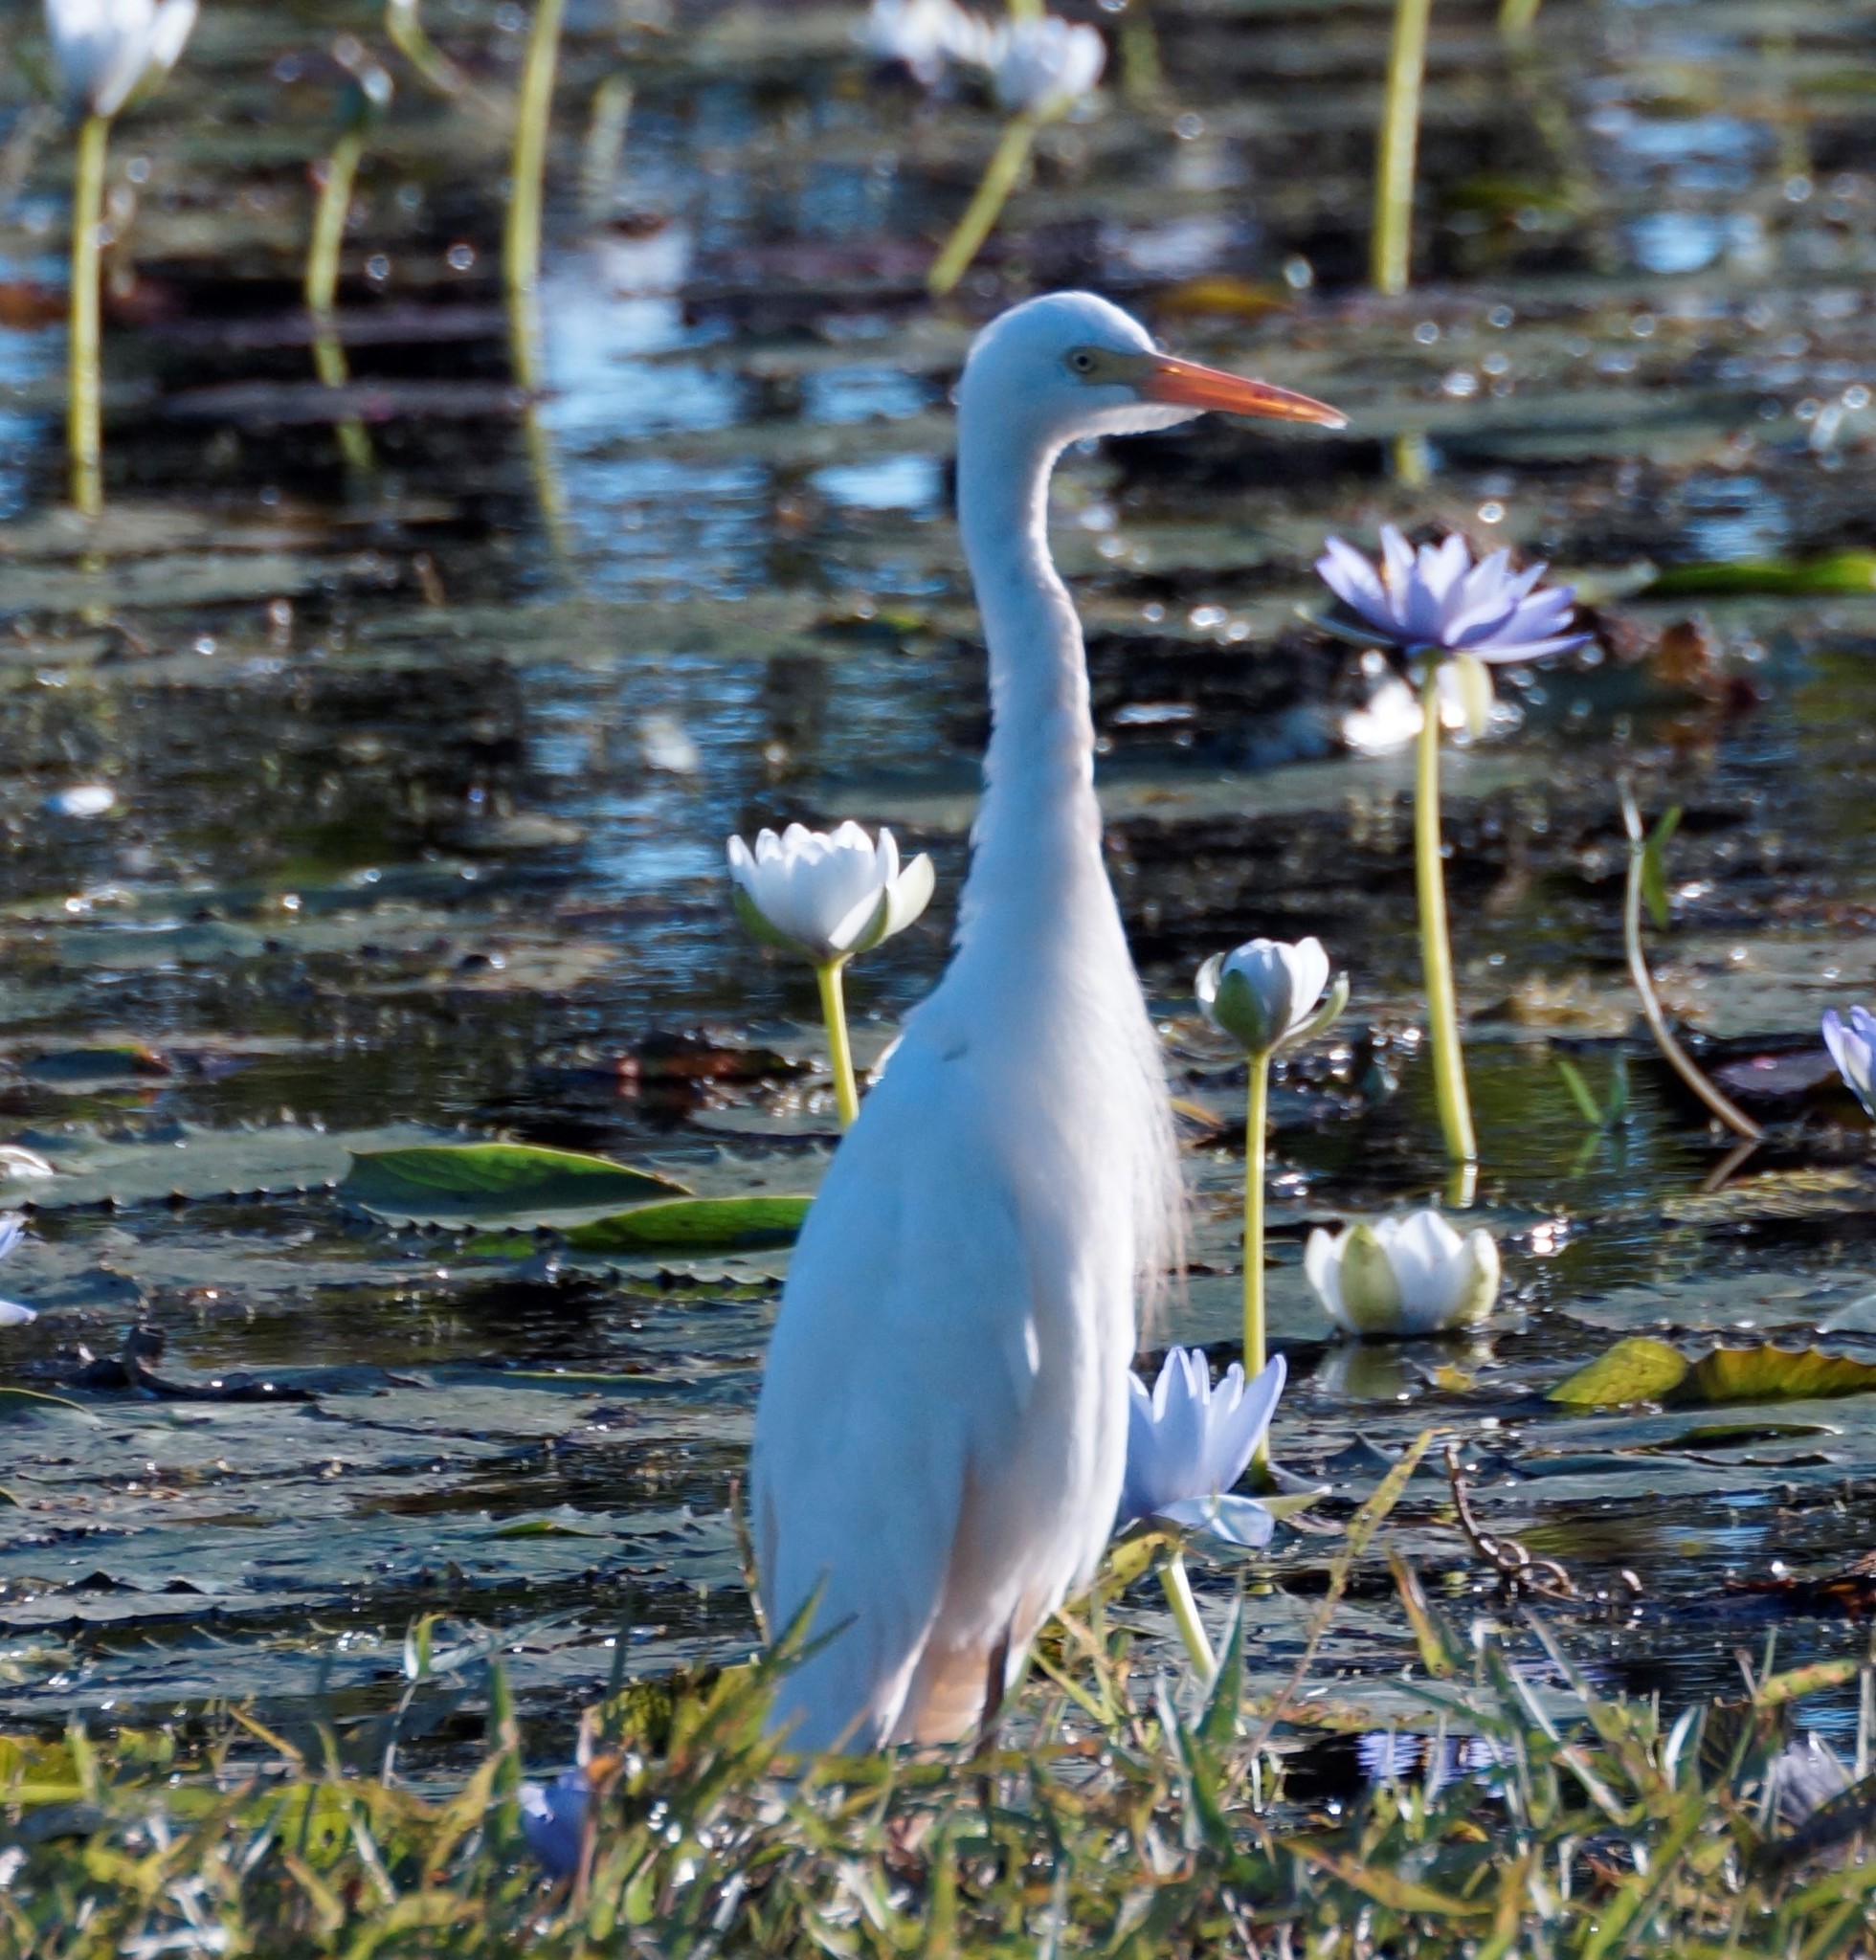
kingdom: Animalia
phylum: Chordata
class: Aves
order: Pelecaniformes
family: Ardeidae
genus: Egretta
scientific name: Egretta intermedia
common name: Intermediate egret
